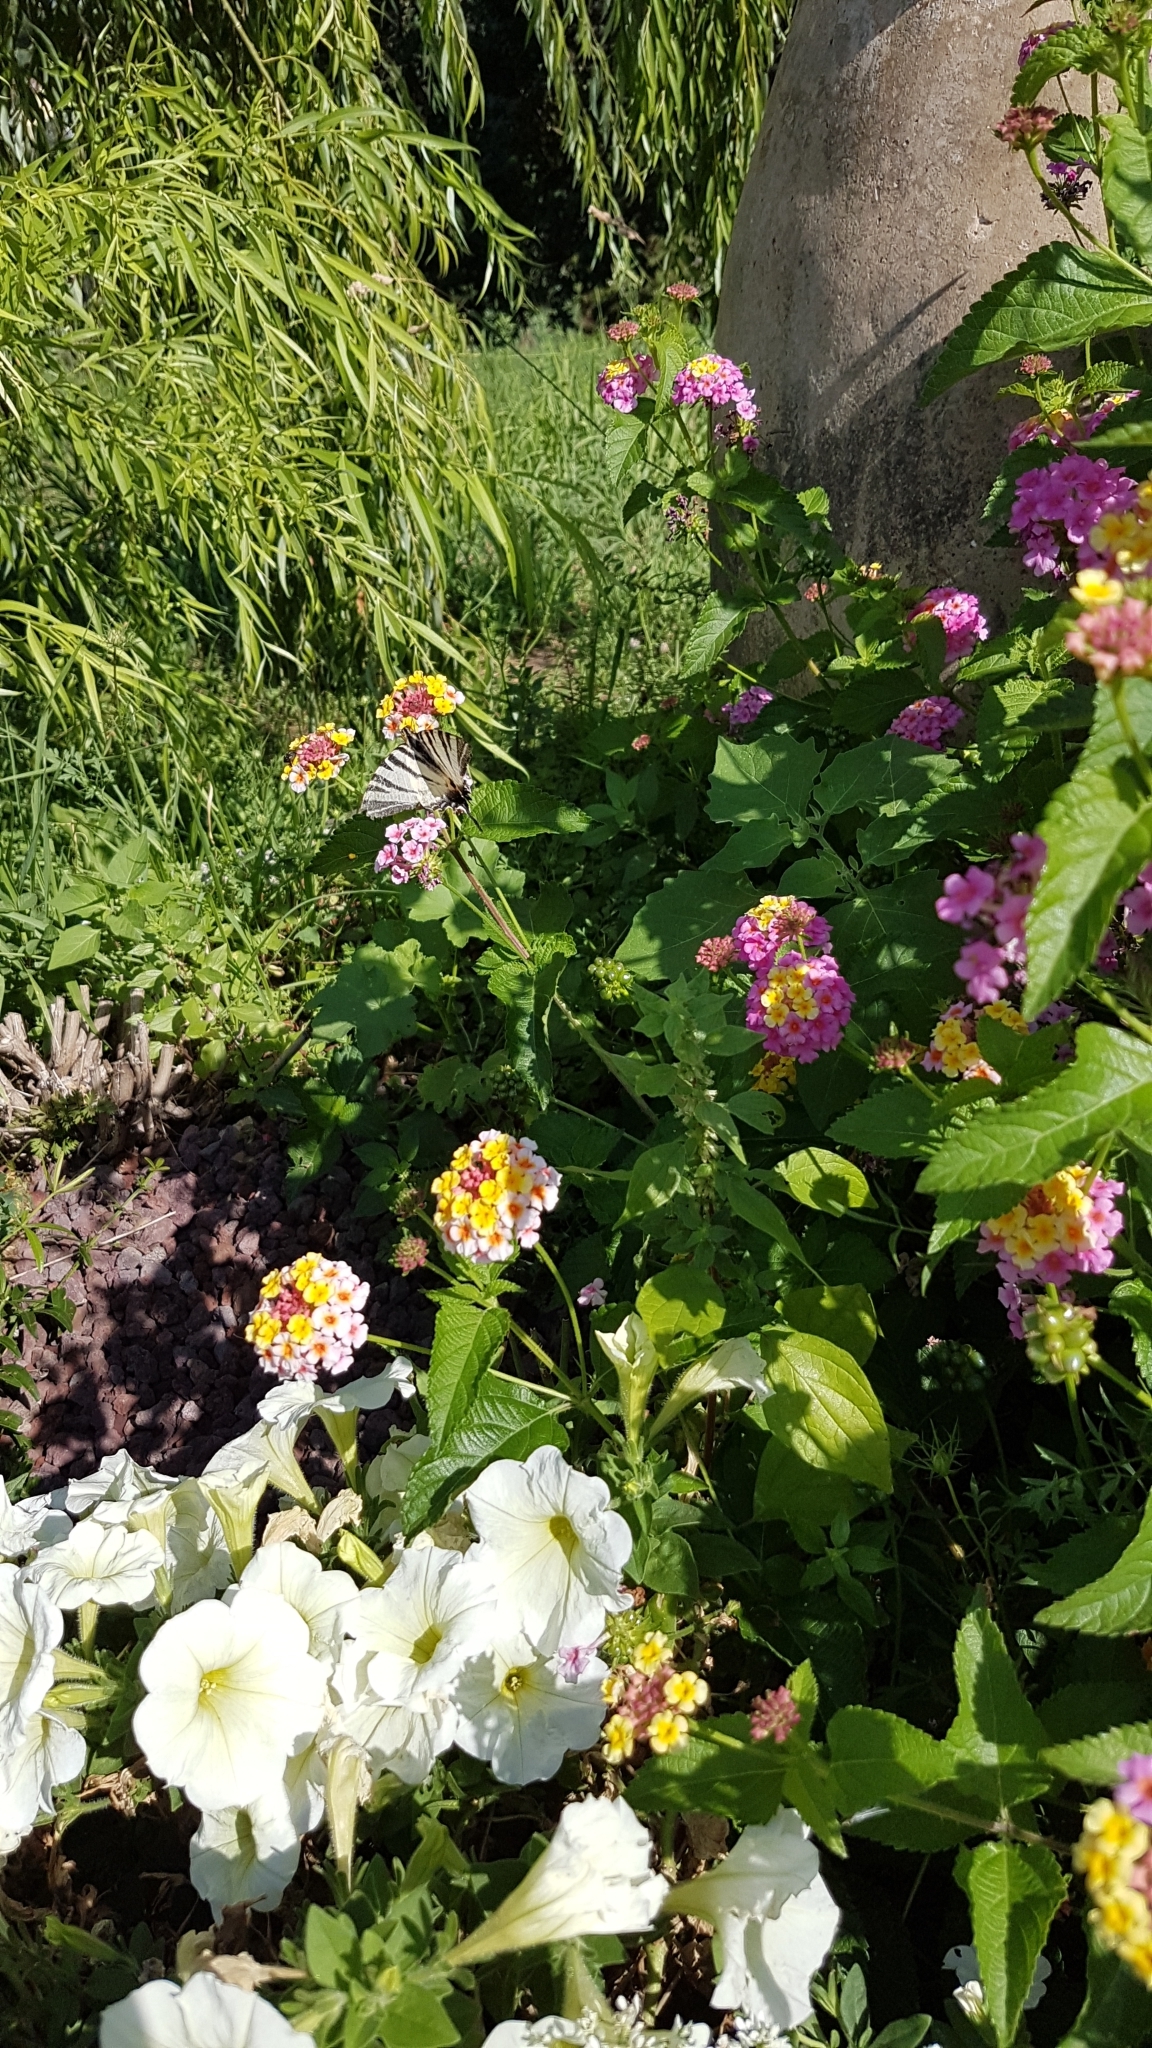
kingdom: Animalia
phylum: Arthropoda
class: Insecta
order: Lepidoptera
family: Papilionidae
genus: Iphiclides
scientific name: Iphiclides podalirius
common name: Scarce swallowtail
